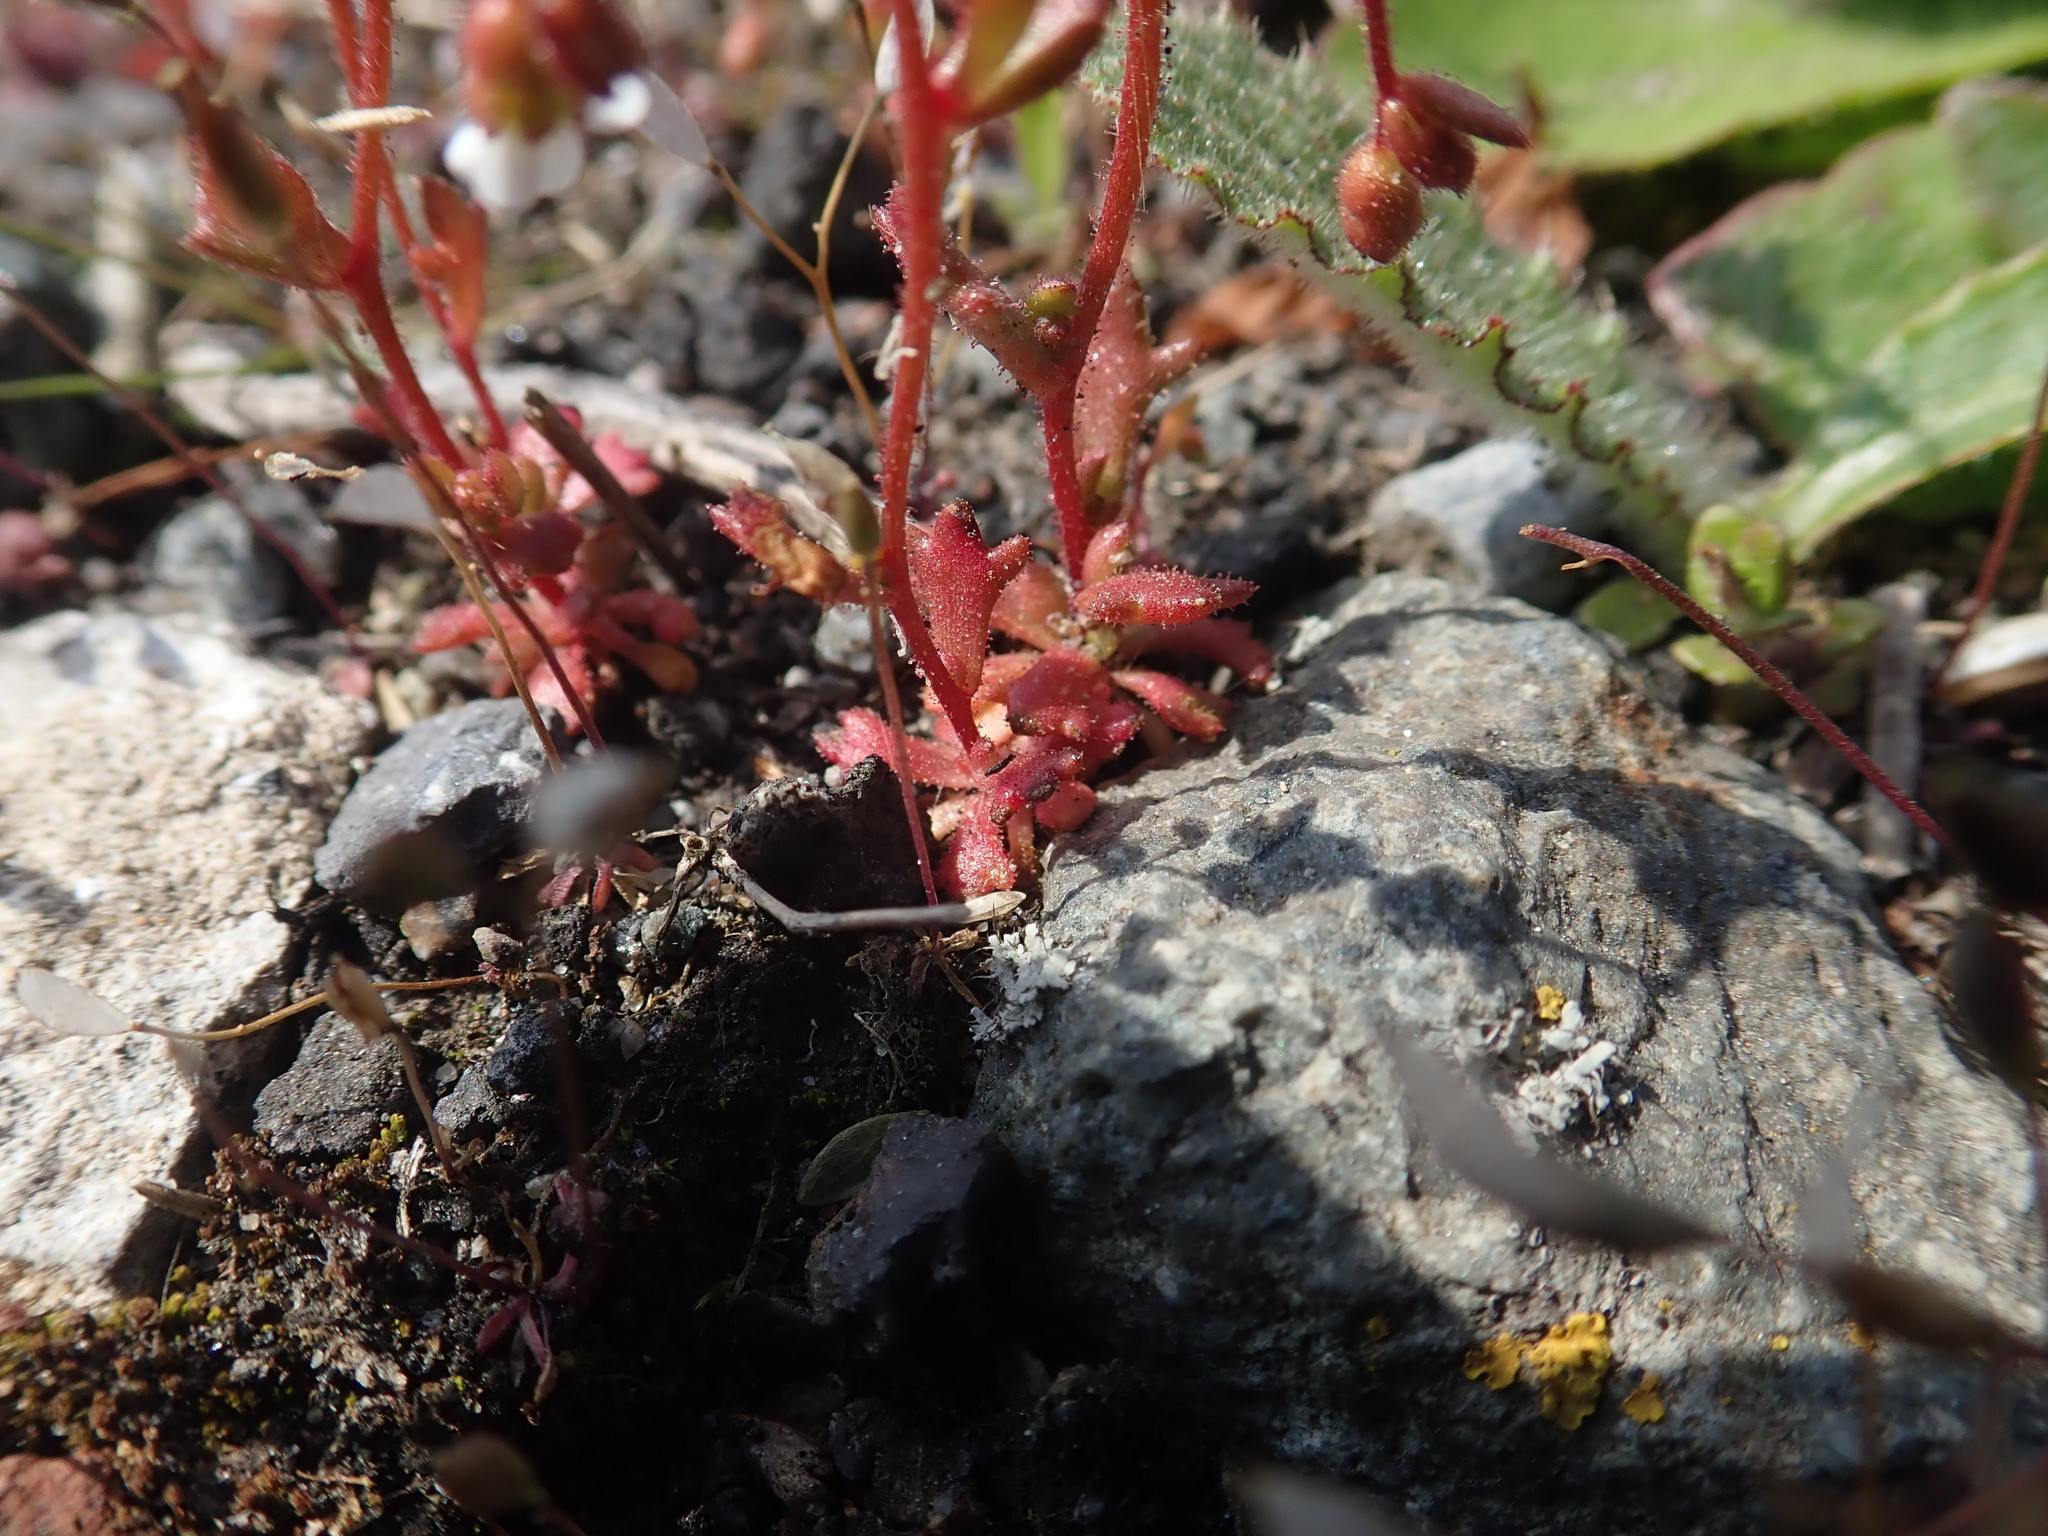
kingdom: Plantae
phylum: Tracheophyta
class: Magnoliopsida
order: Saxifragales
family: Saxifragaceae
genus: Saxifraga
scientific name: Saxifraga tridactylites
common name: Rue-leaved saxifrage
